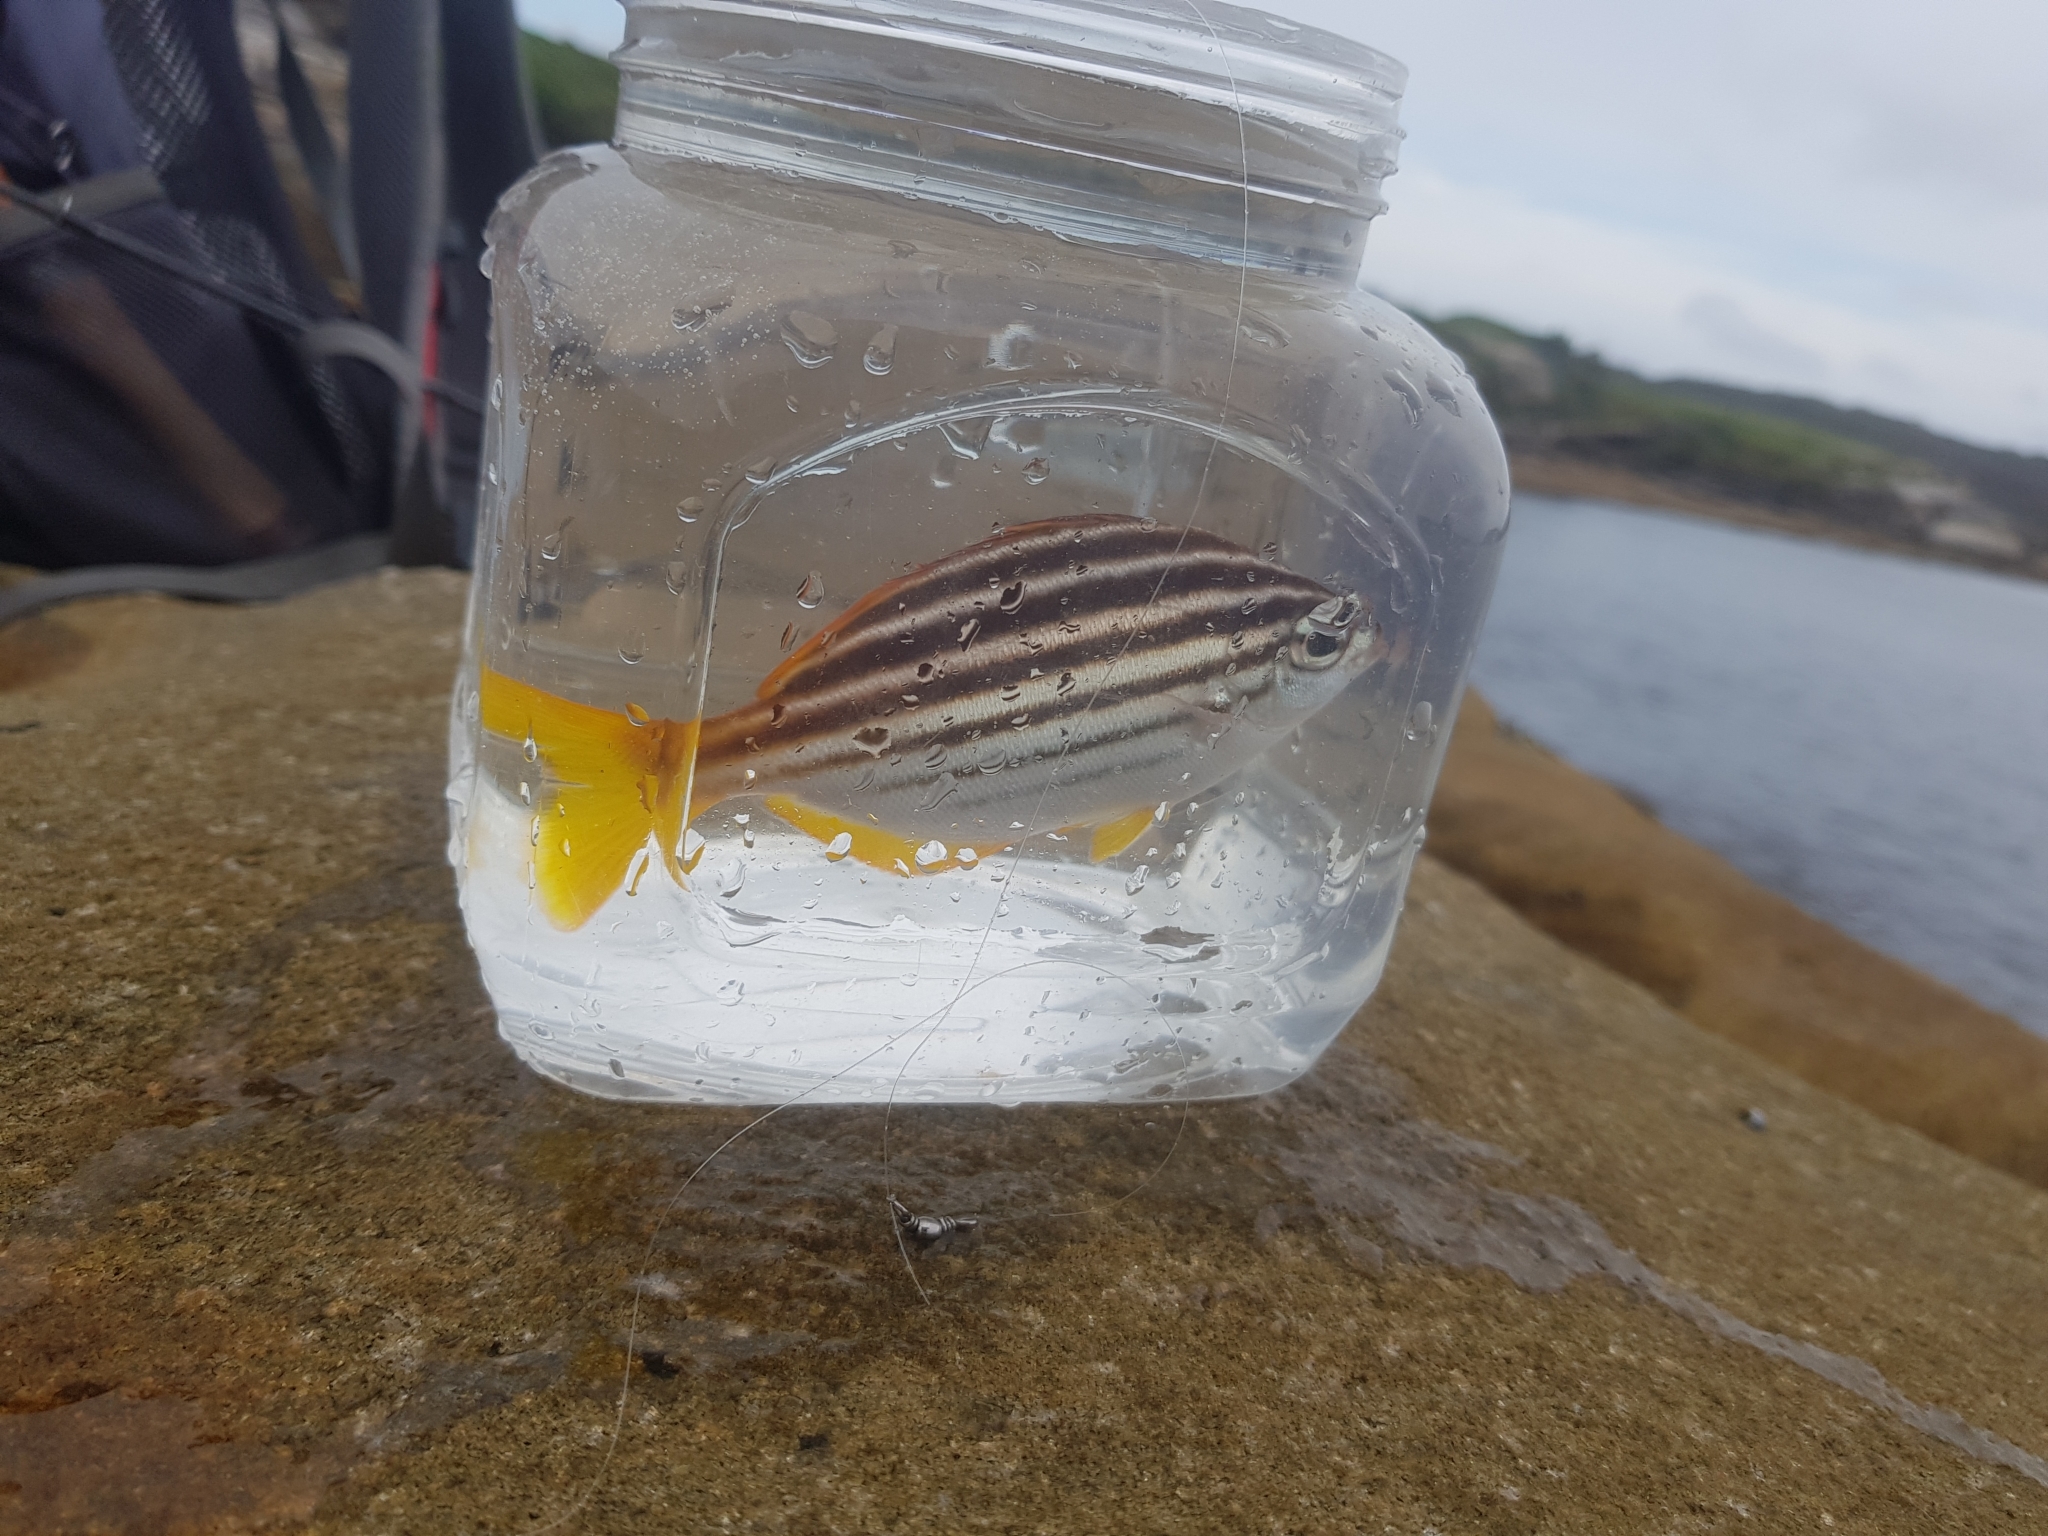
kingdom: Animalia
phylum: Chordata
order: Perciformes
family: Kyphosidae
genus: Atypichthys
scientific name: Atypichthys strigatus
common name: Australian mado
